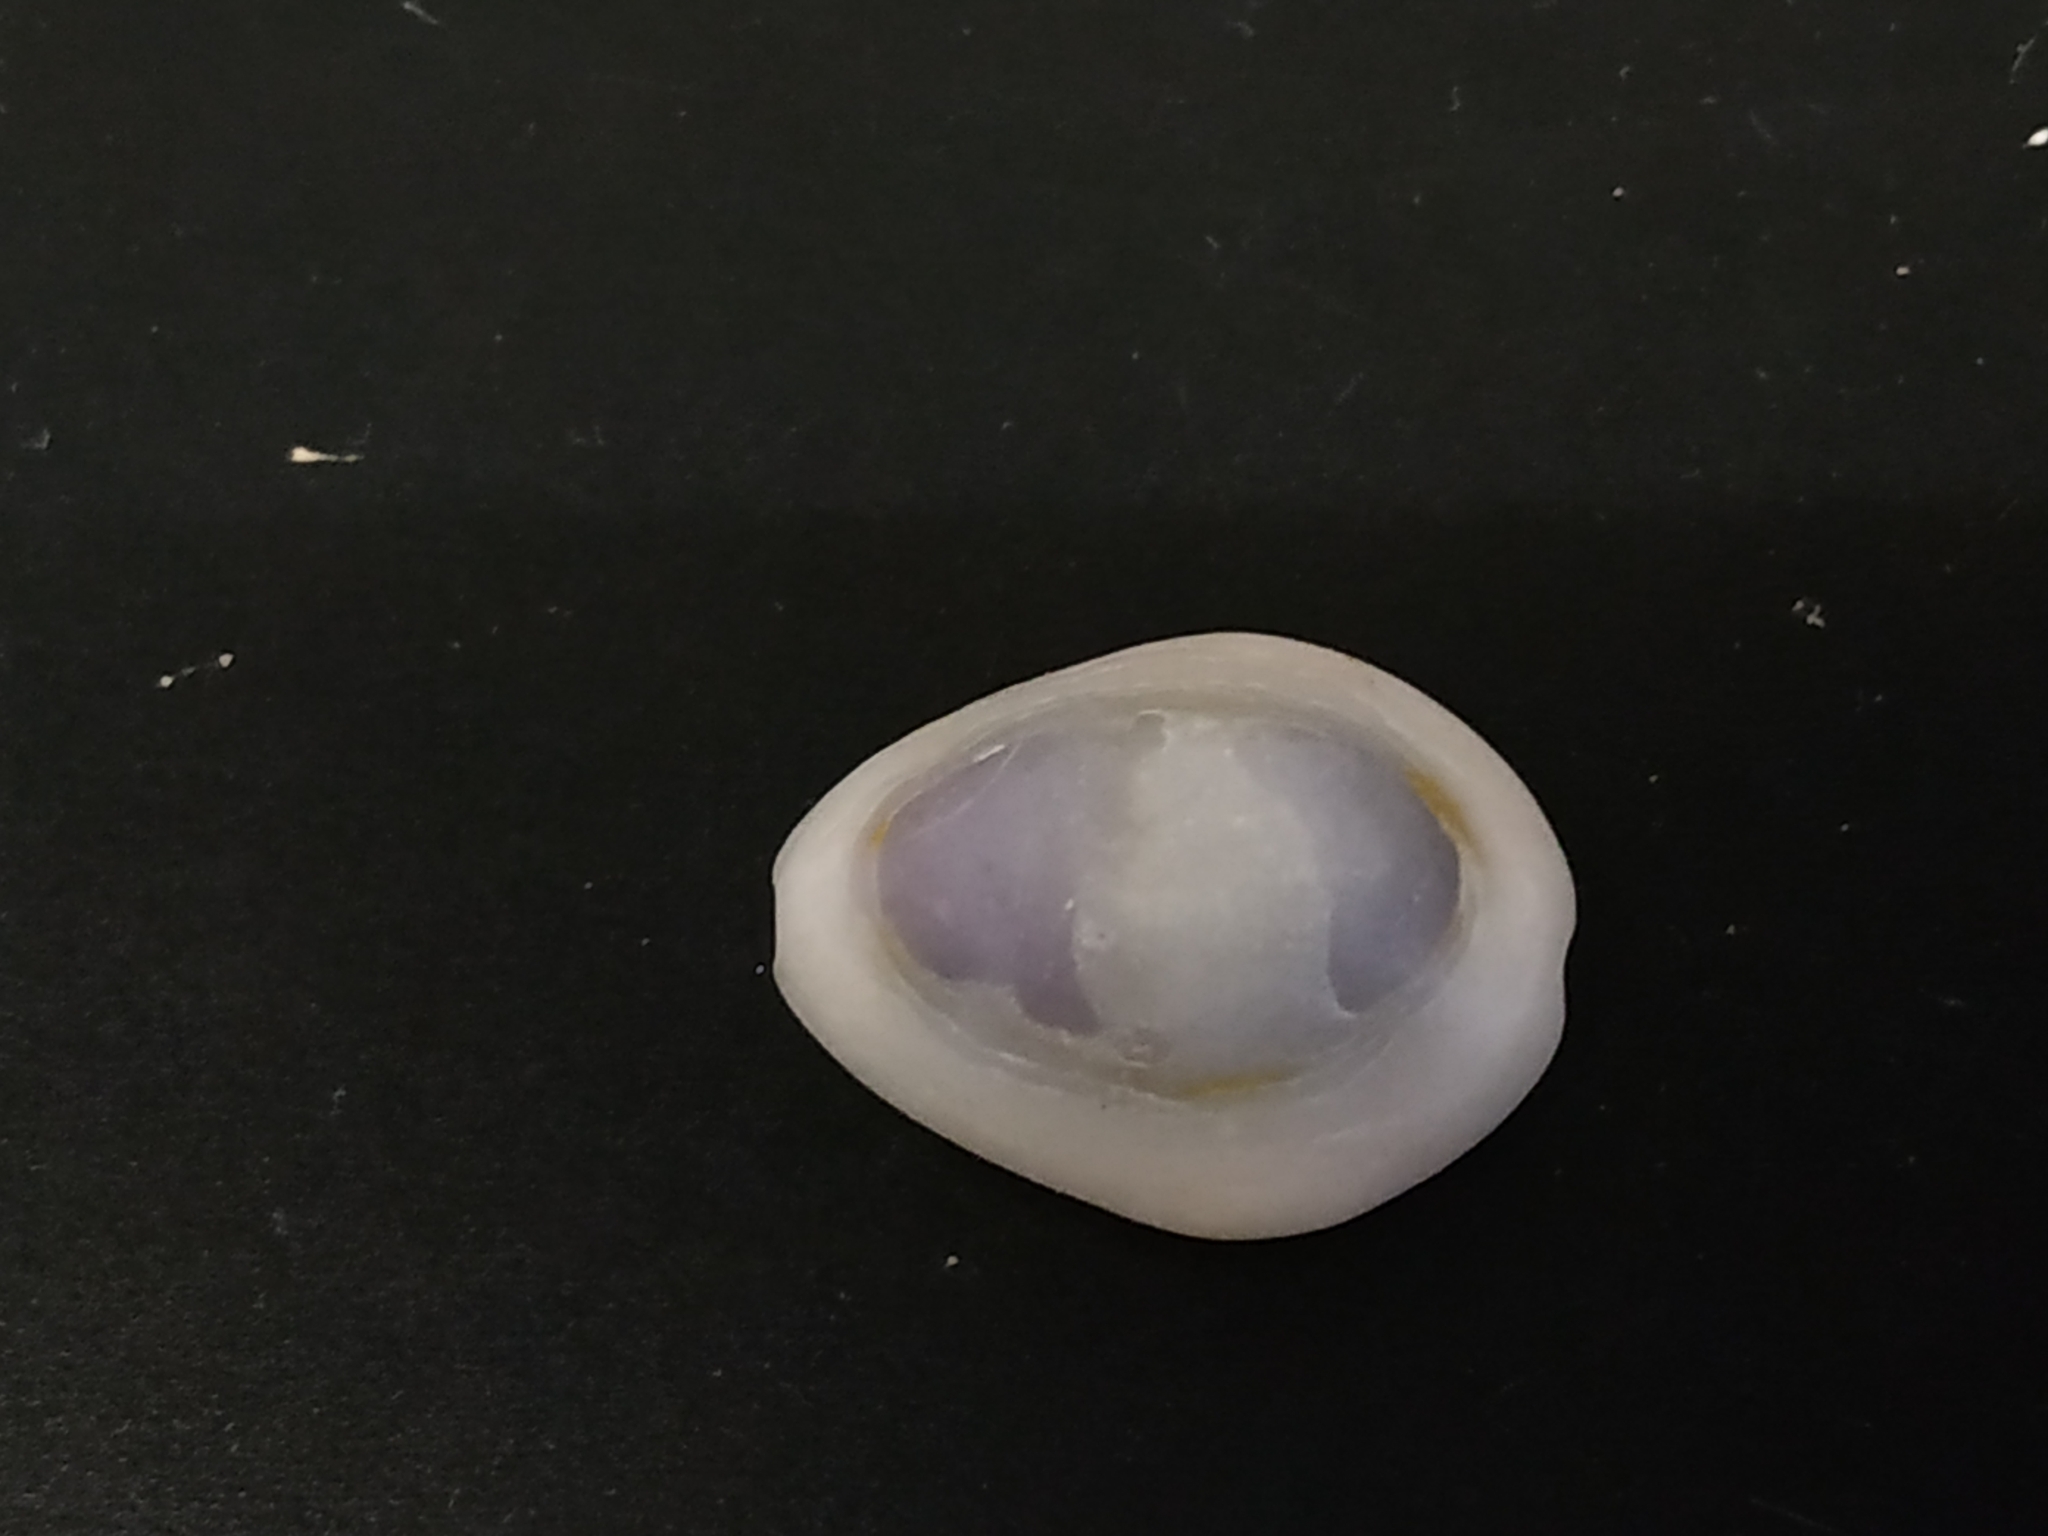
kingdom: Animalia
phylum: Mollusca
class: Gastropoda
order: Littorinimorpha
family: Cypraeidae
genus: Monetaria
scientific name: Monetaria annulus
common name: Ring cowrie
